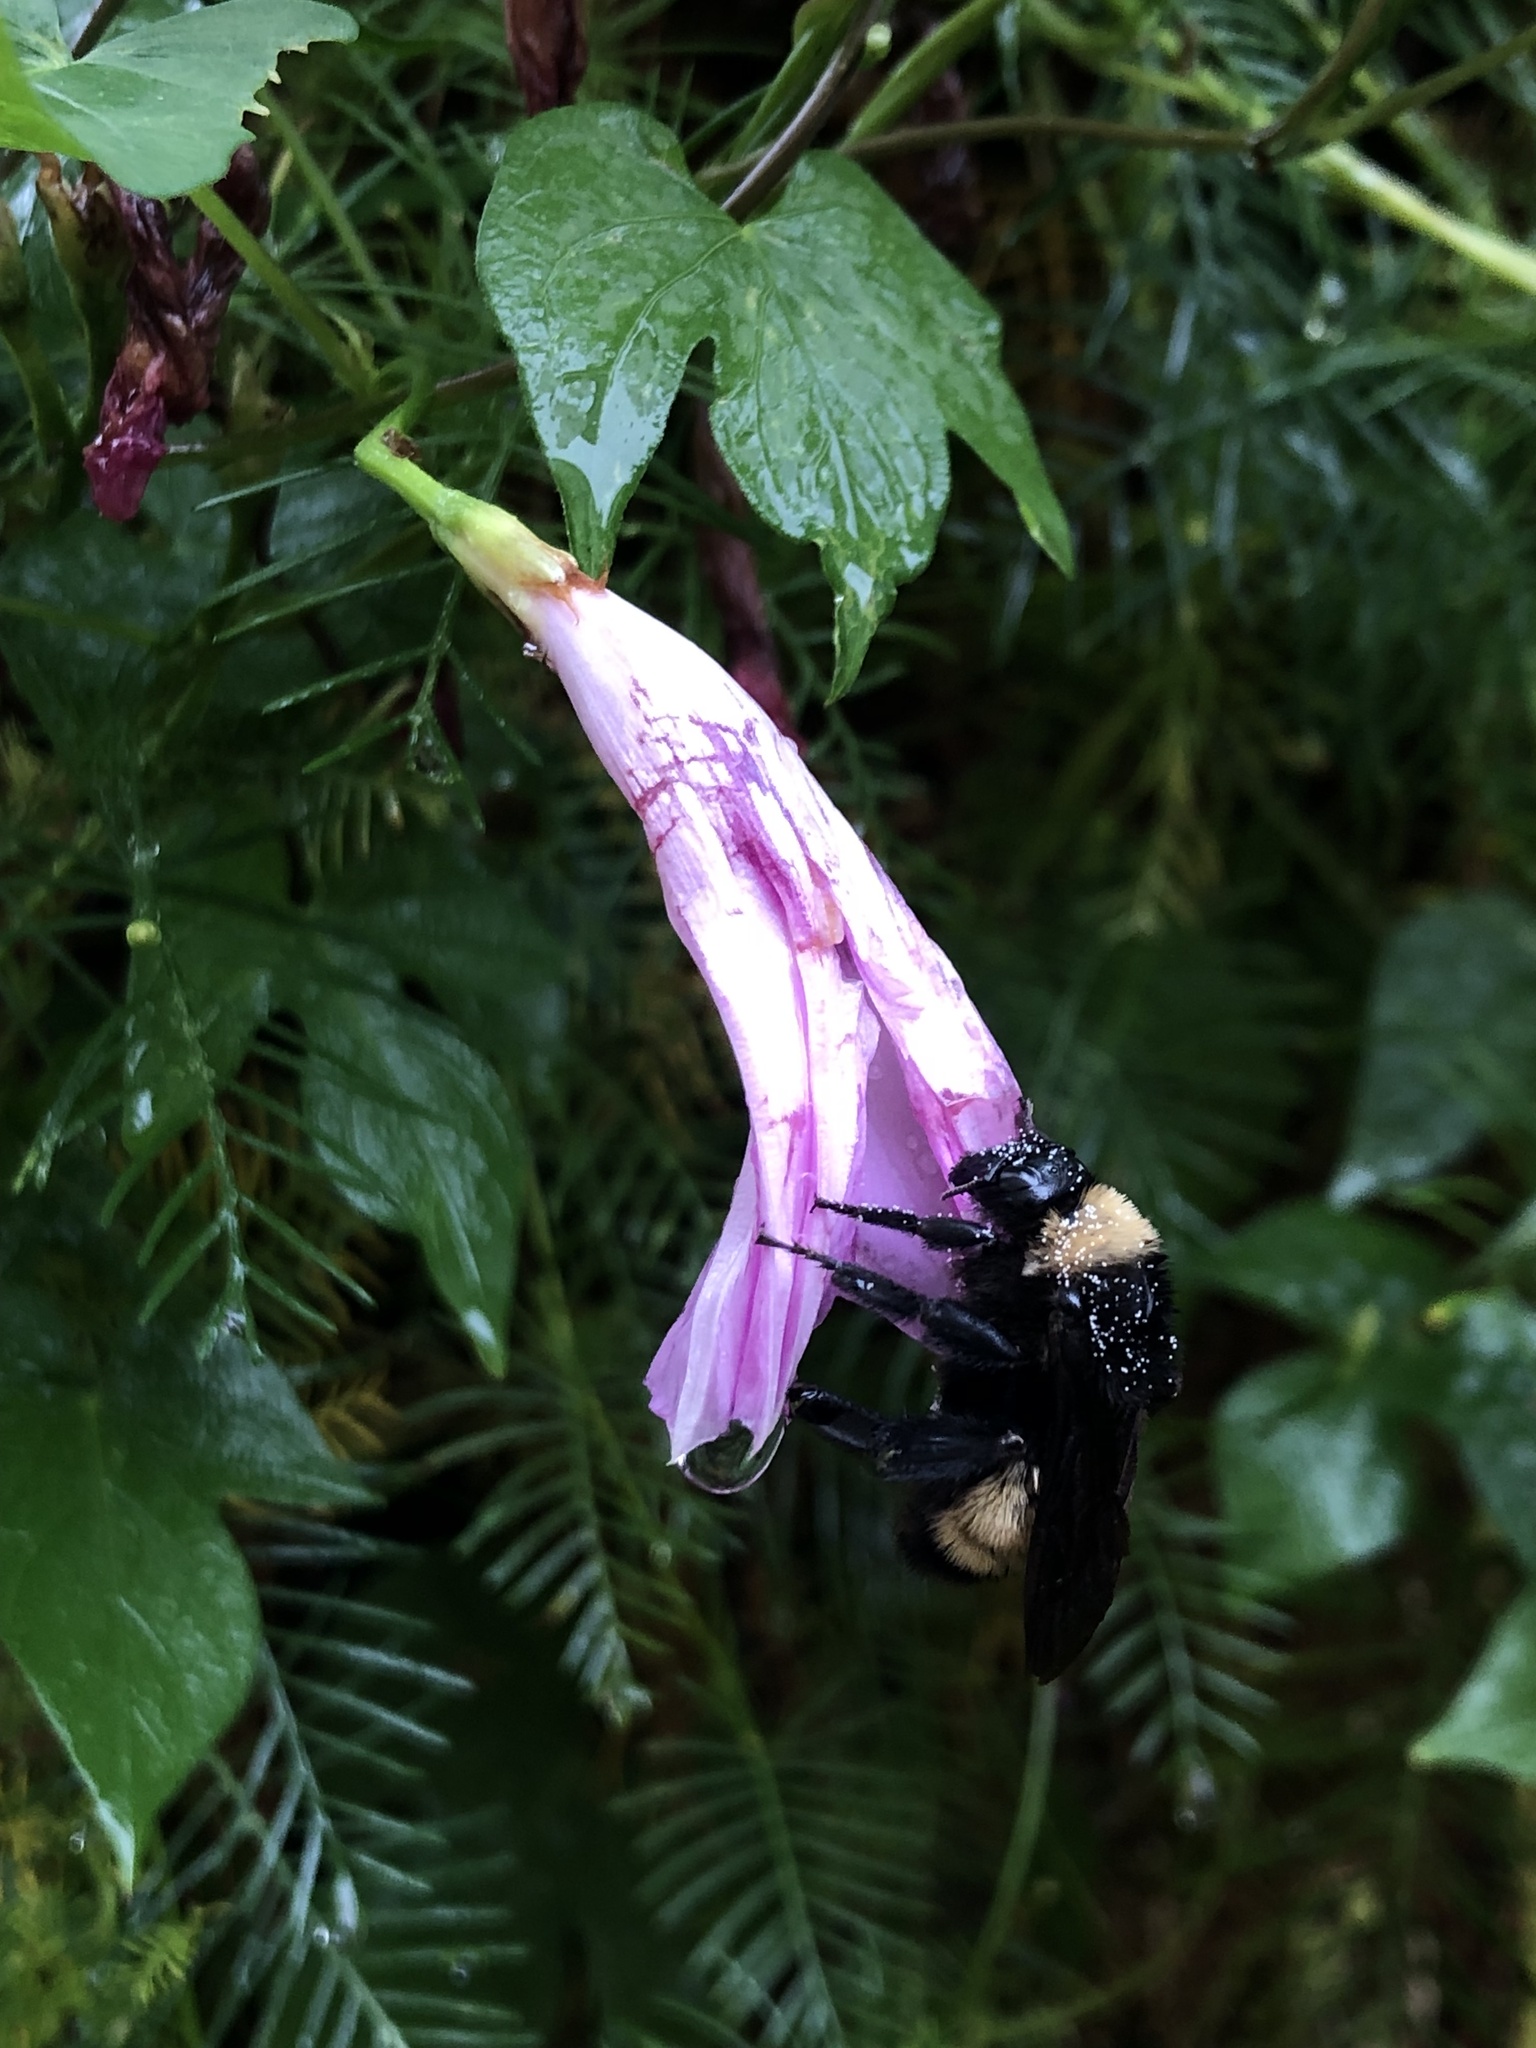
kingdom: Animalia
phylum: Arthropoda
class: Insecta
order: Hymenoptera
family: Apidae
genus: Bombus
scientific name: Bombus pensylvanicus
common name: Bumble bee
